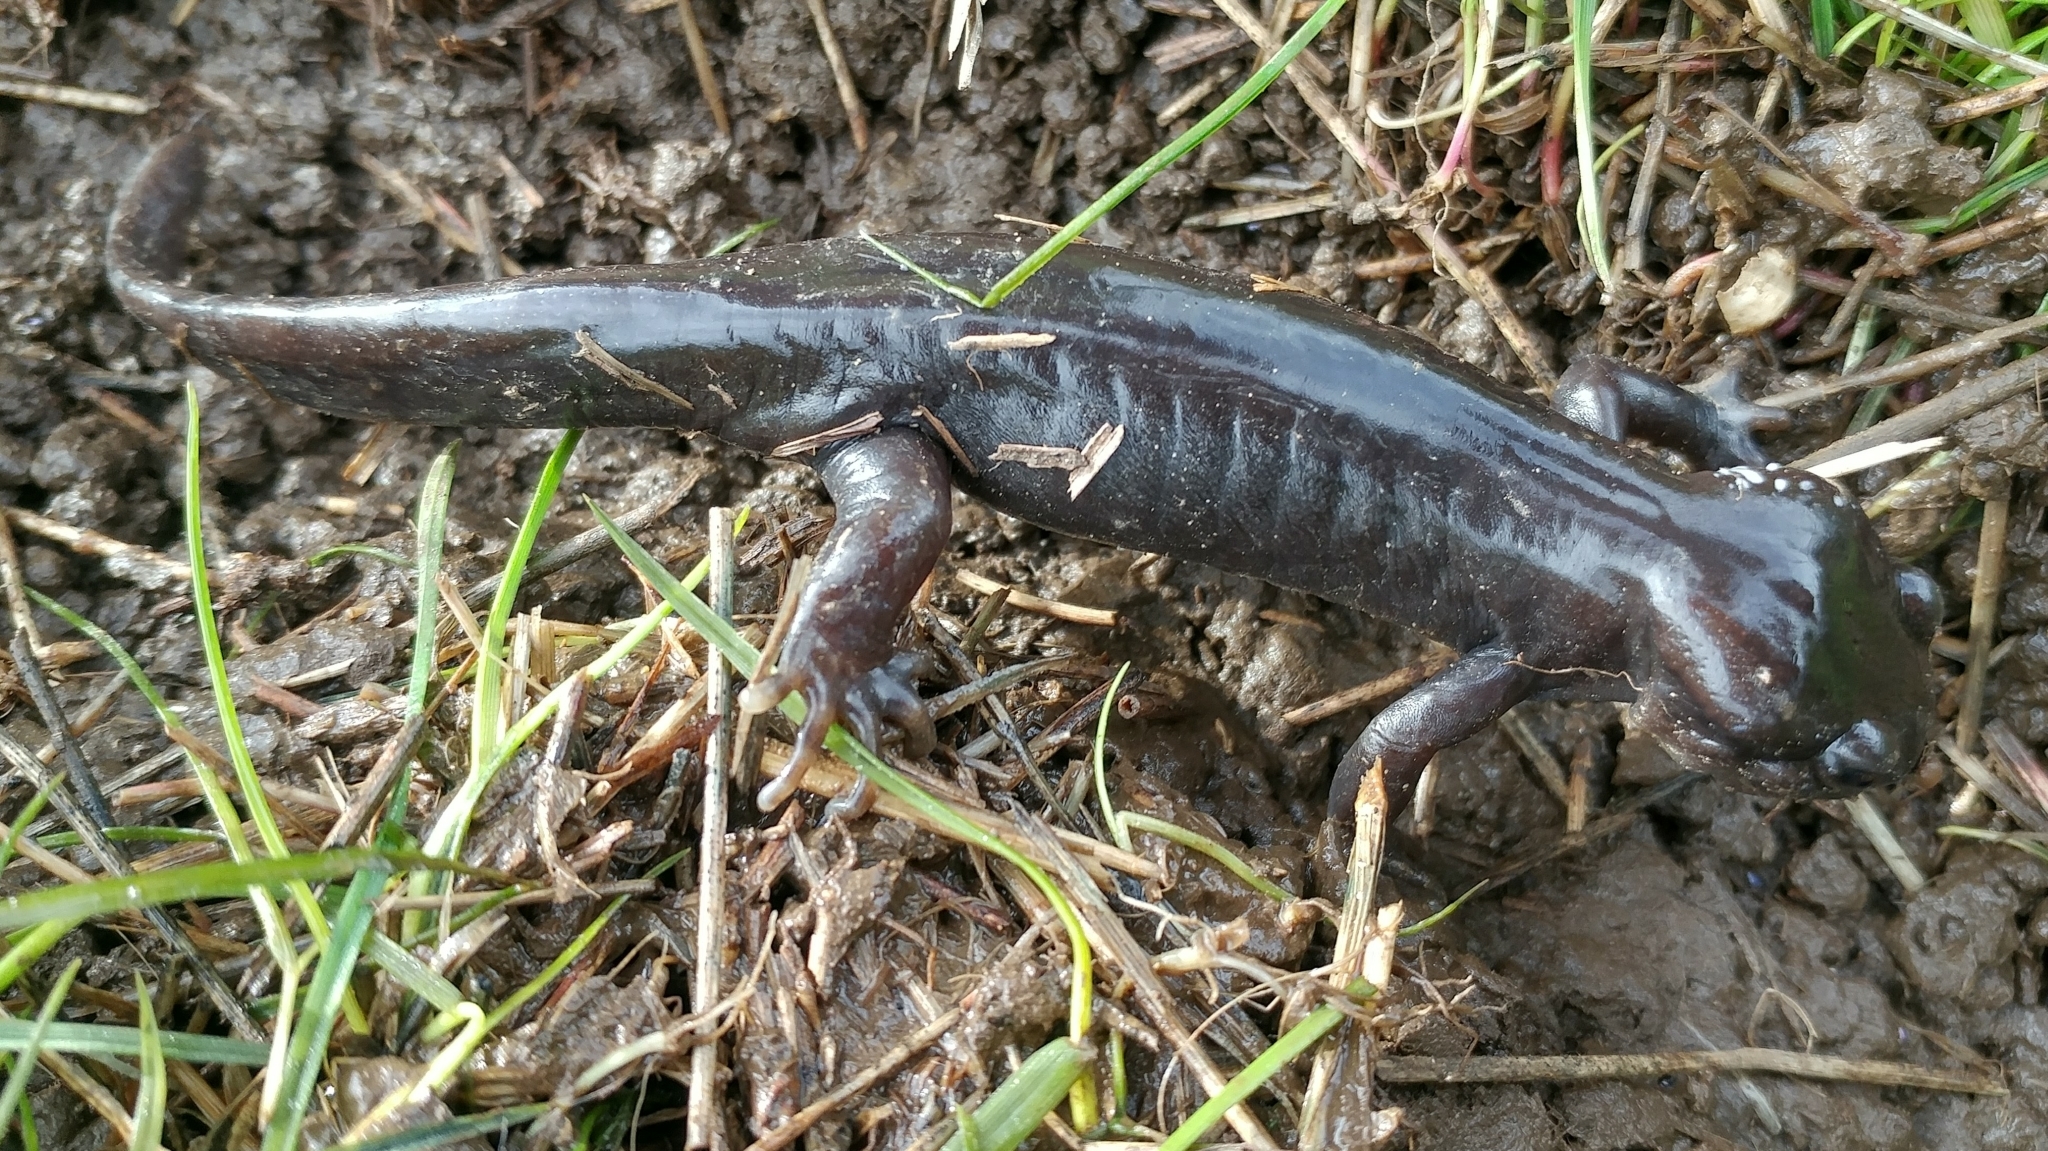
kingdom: Animalia
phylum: Chordata
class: Amphibia
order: Caudata
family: Ambystomatidae
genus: Ambystoma
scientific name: Ambystoma gracile
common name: Northwestern salamander
